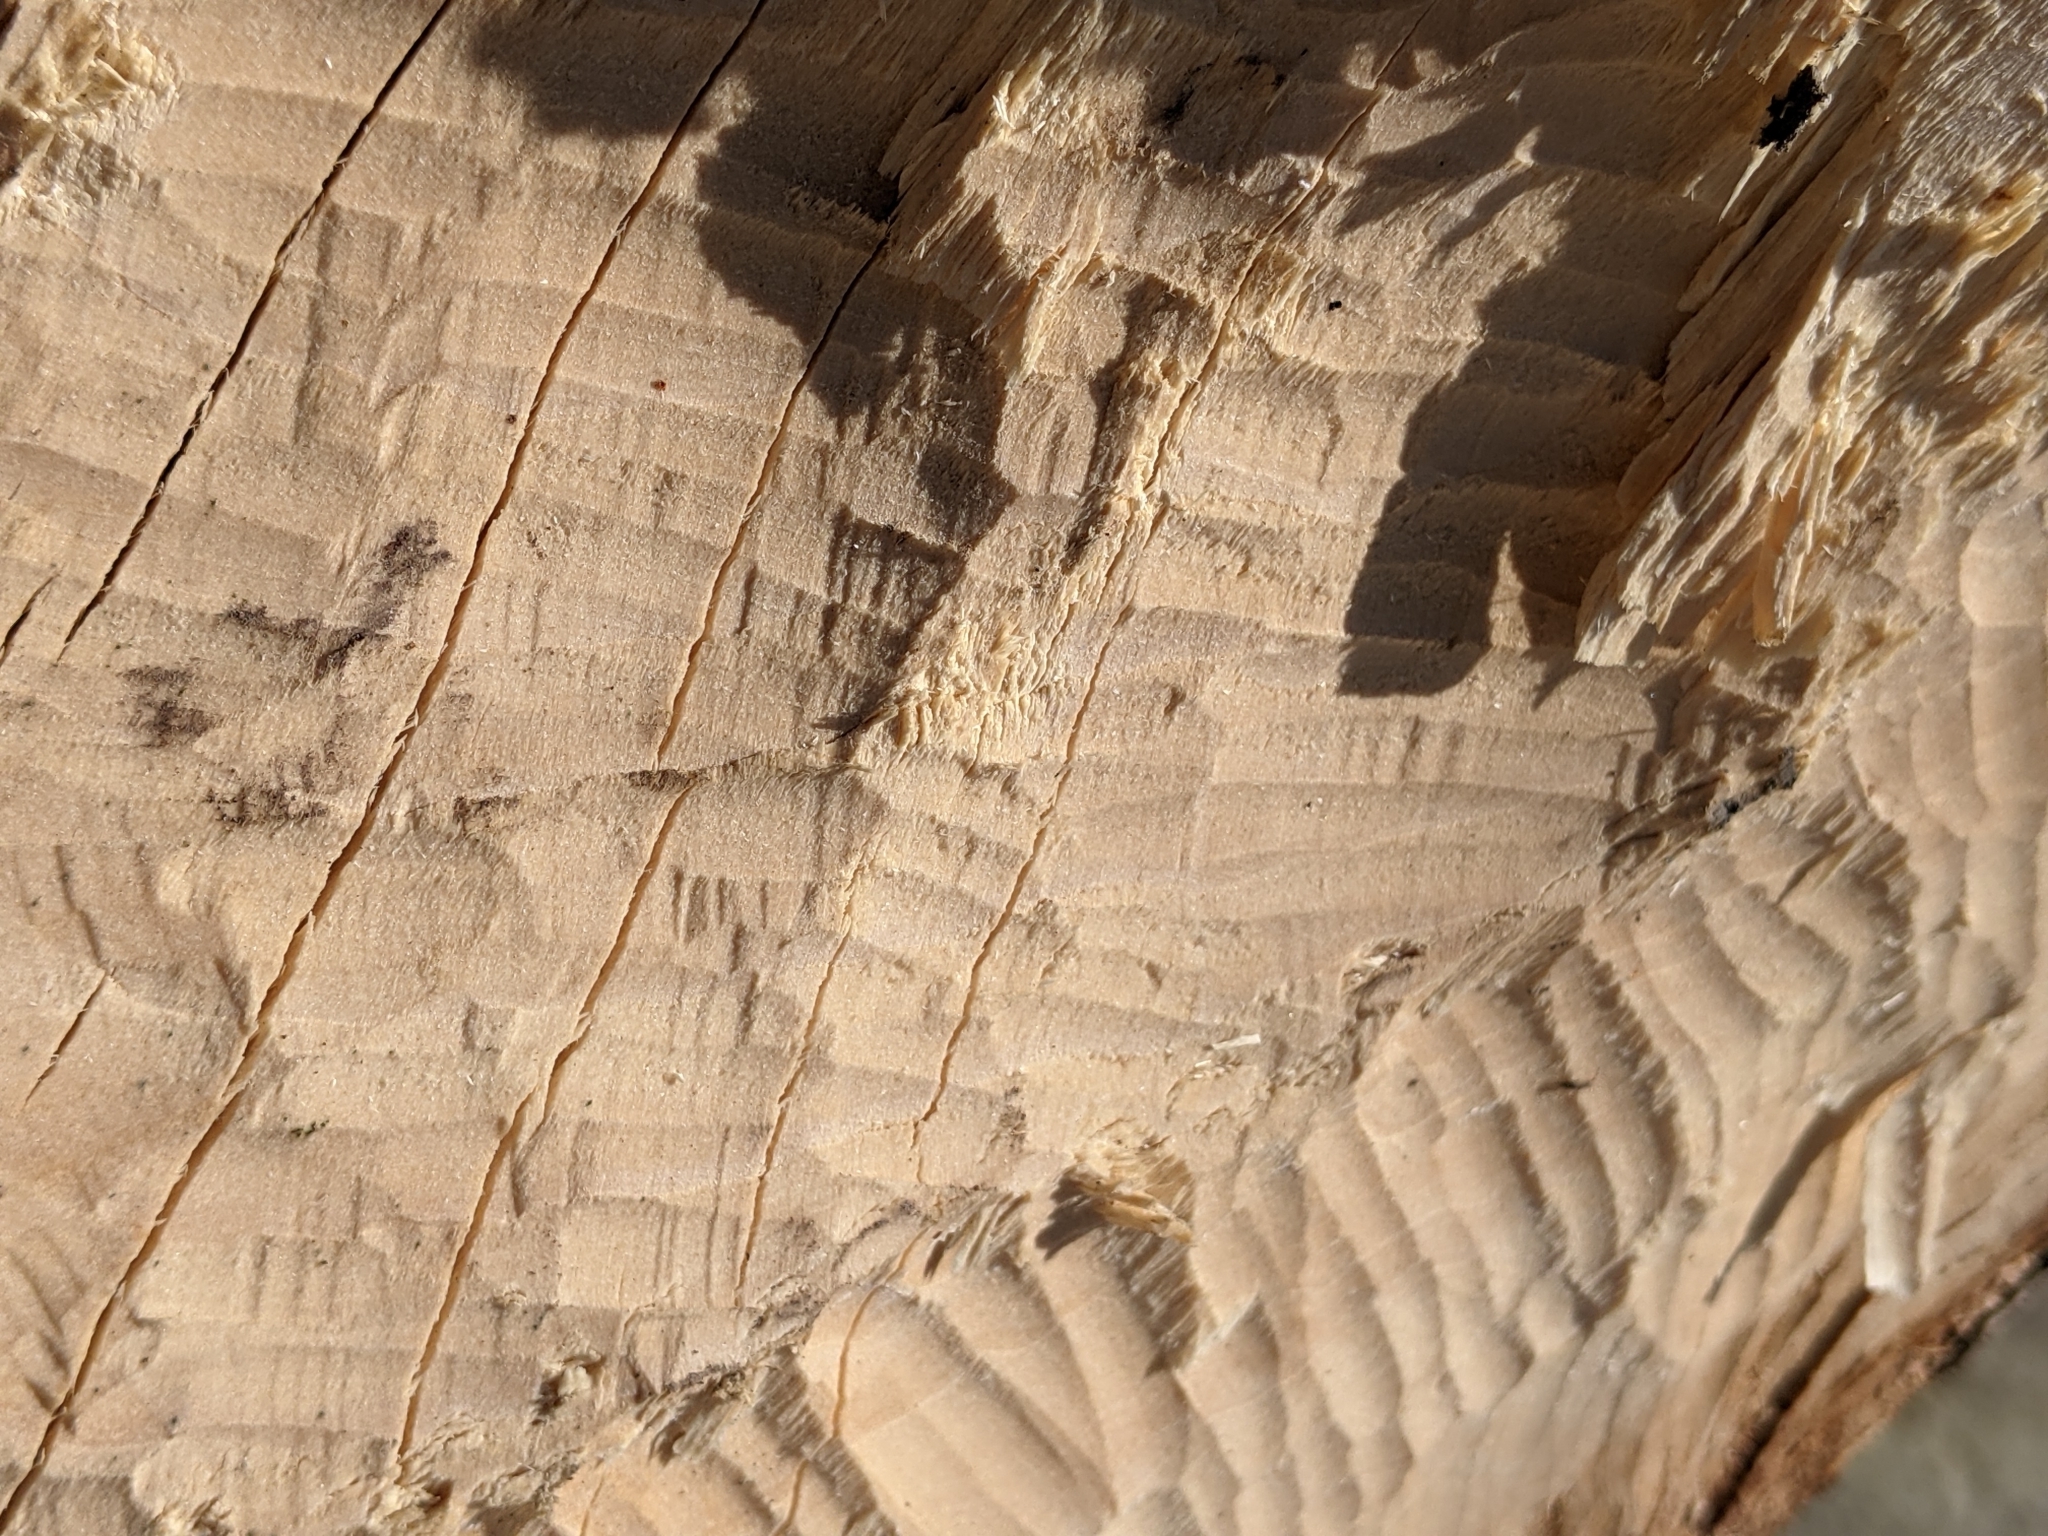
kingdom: Animalia
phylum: Arthropoda
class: Collembola
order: Entomobryomorpha
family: Entomobryidae
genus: Entomobrya
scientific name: Entomobrya nivalis
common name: Cosmopolitan springtail
